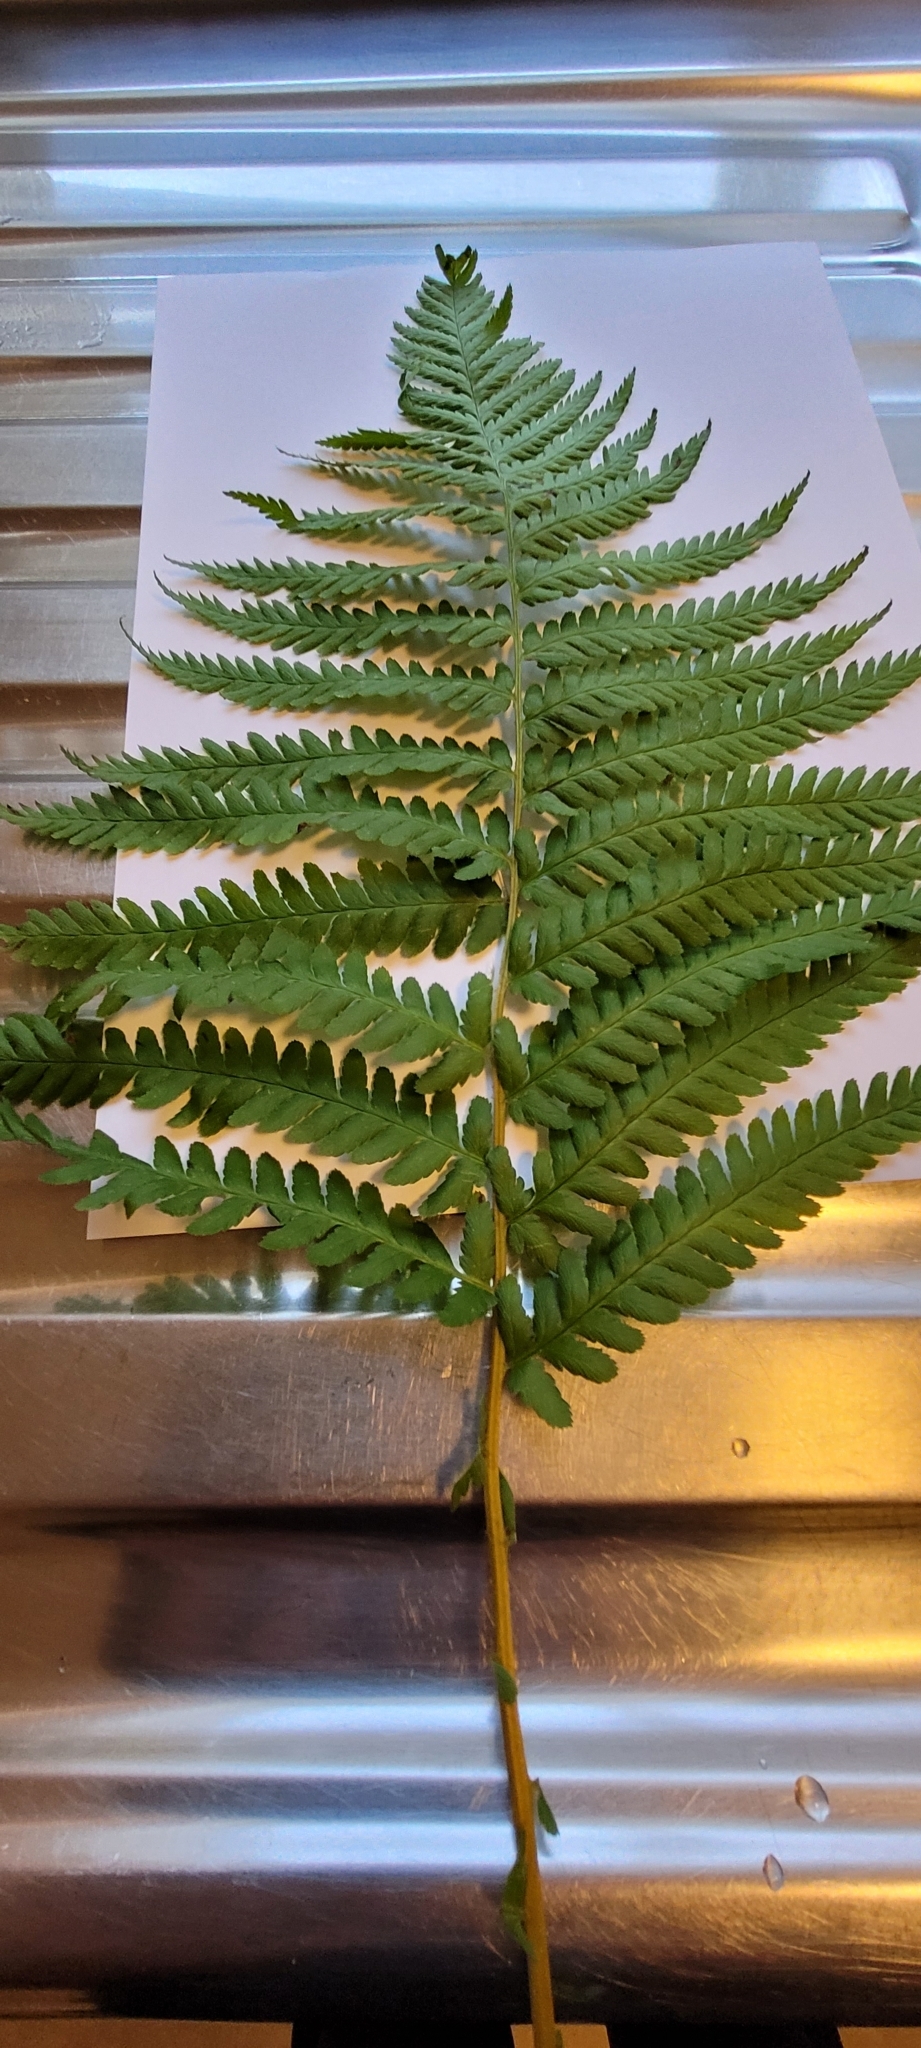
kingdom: Plantae
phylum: Tracheophyta
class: Polypodiopsida
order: Polypodiales
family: Dryopteridaceae
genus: Dryopteris
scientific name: Dryopteris filix-mas
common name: Male fern
